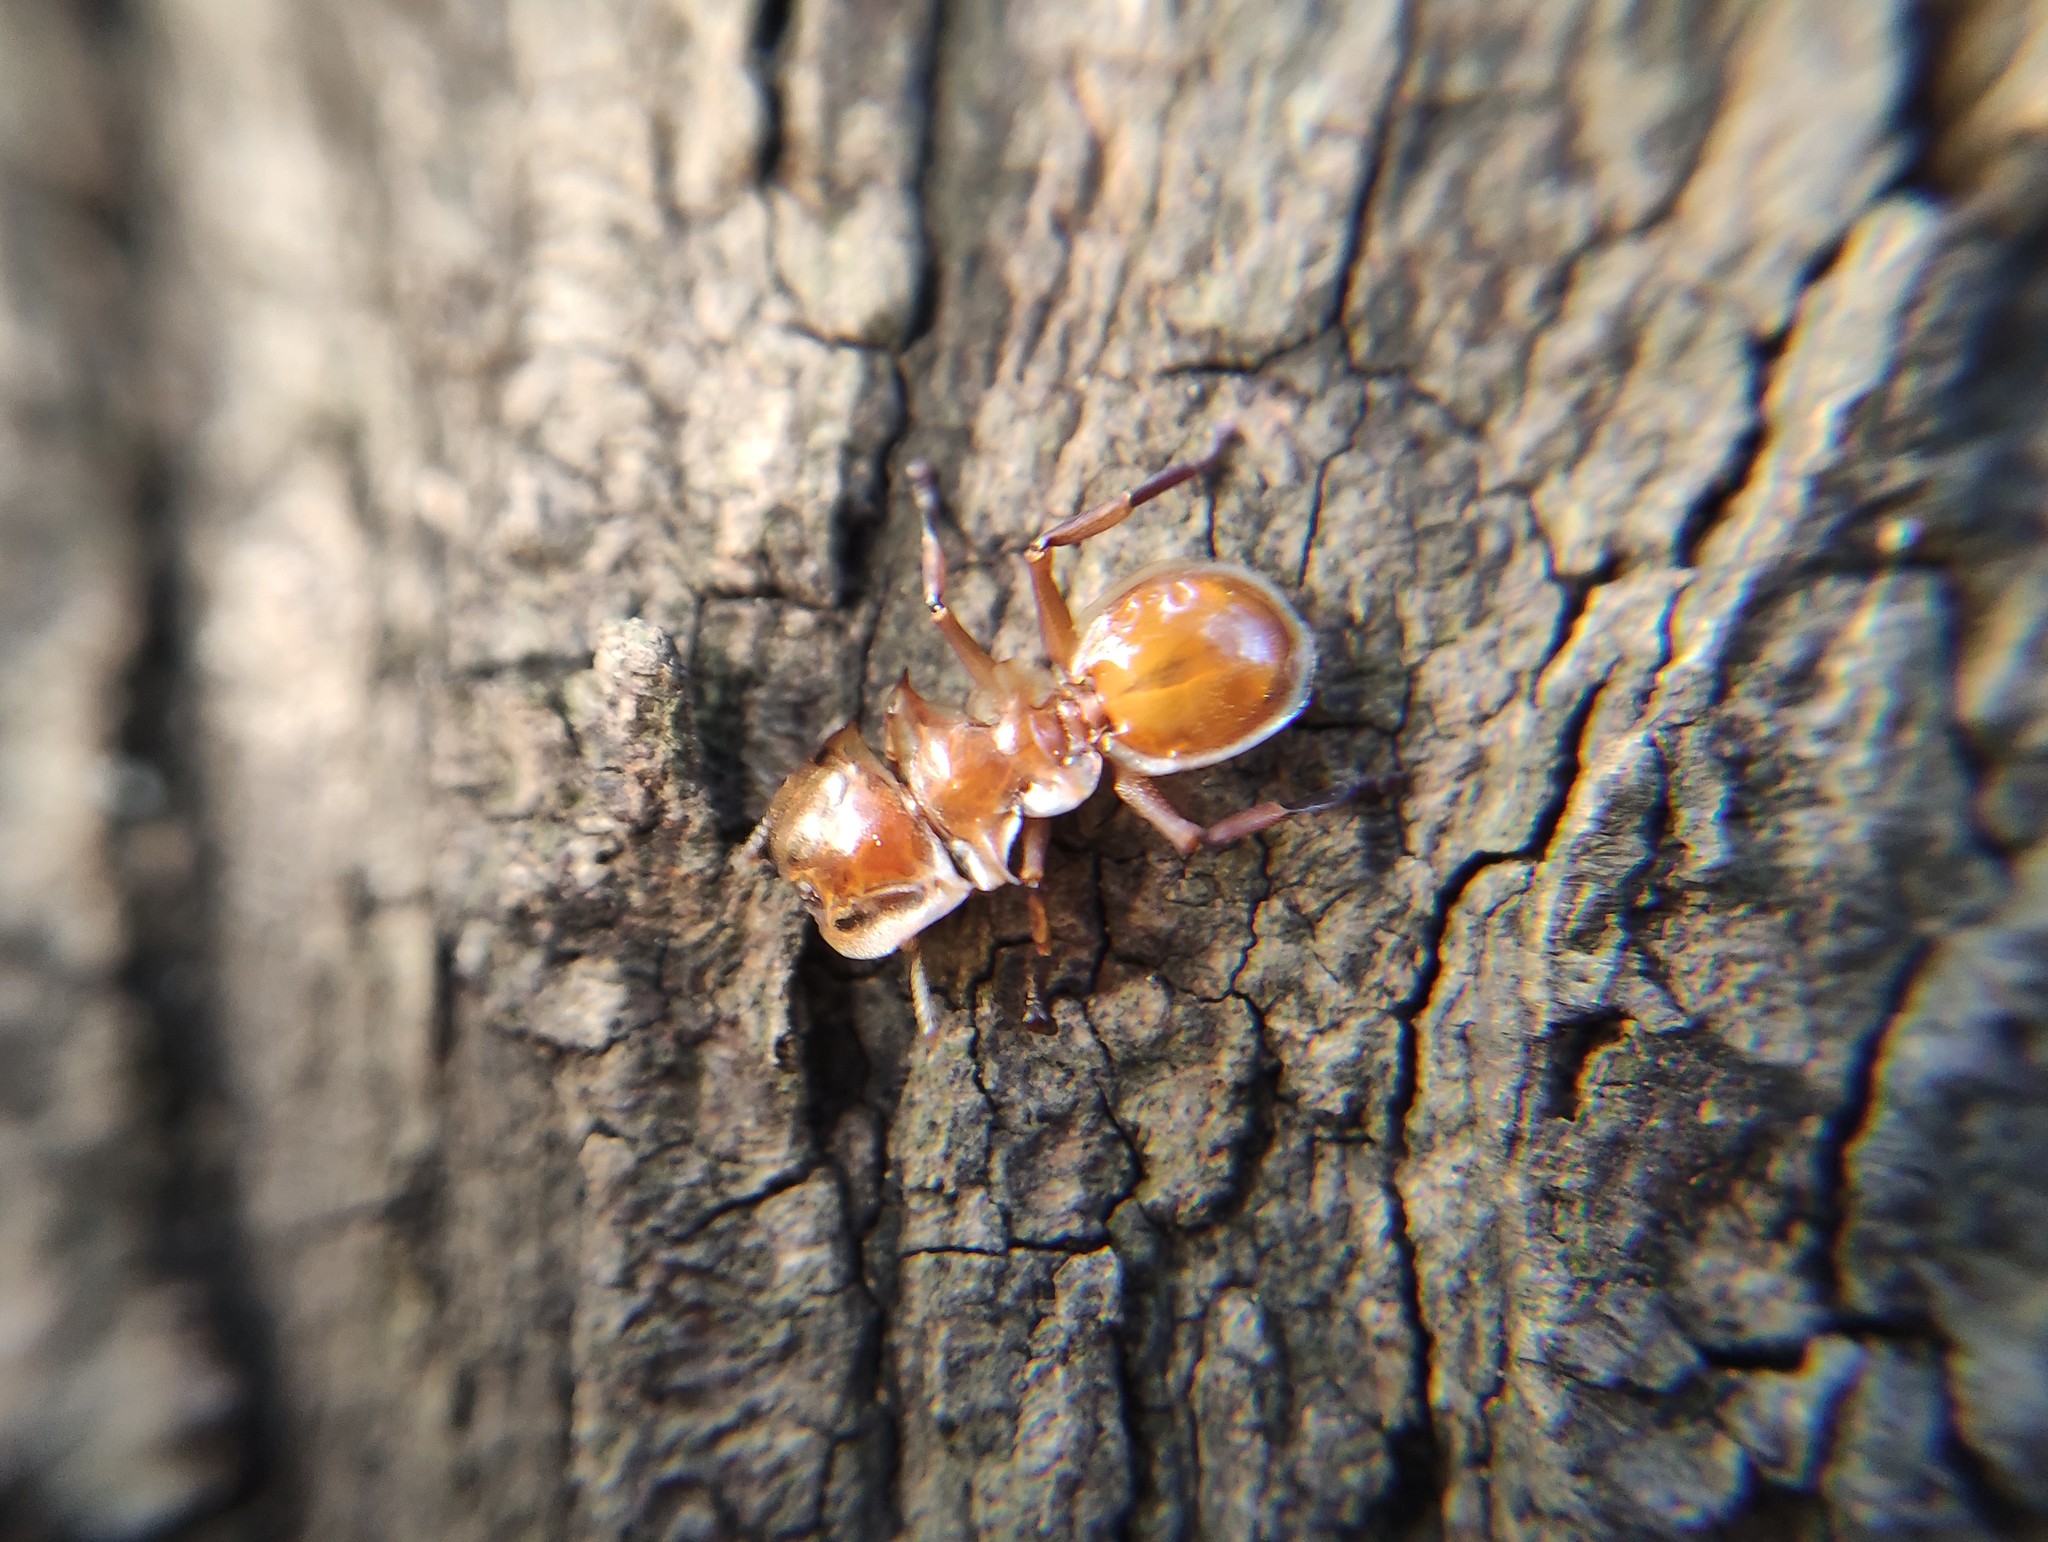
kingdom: Animalia
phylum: Arthropoda
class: Insecta
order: Hymenoptera
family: Formicidae
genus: Cephalotes
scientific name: Cephalotes clypeatus
